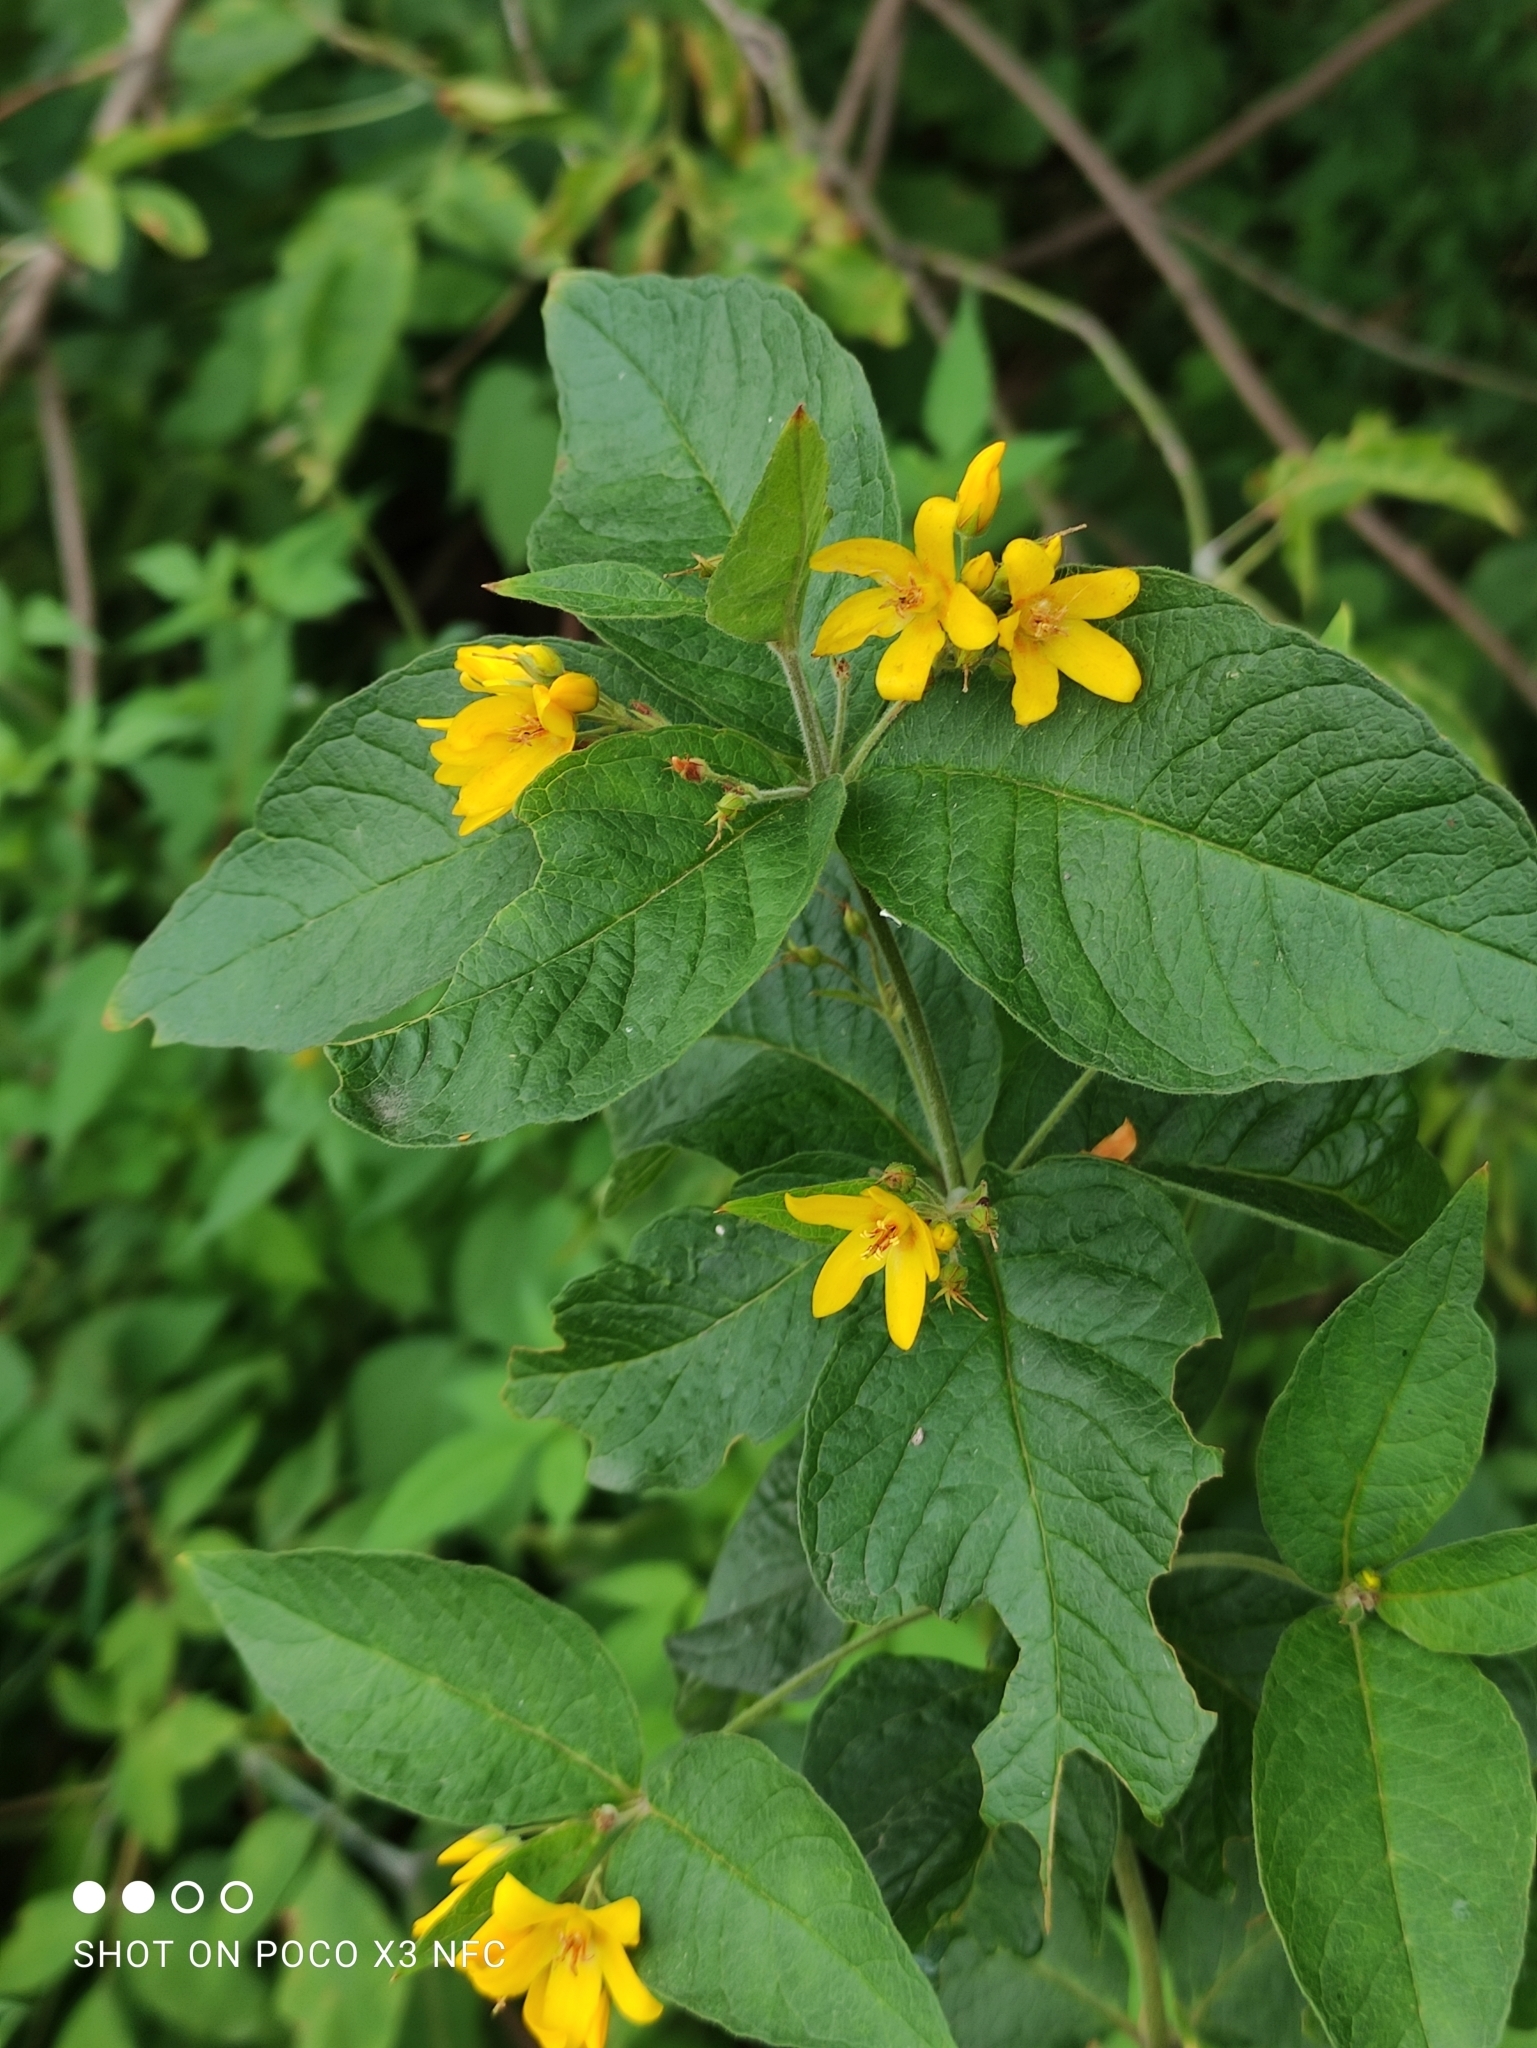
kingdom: Plantae
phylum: Tracheophyta
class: Magnoliopsida
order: Ericales
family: Primulaceae
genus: Lysimachia
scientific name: Lysimachia vulgaris
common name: Yellow loosestrife
